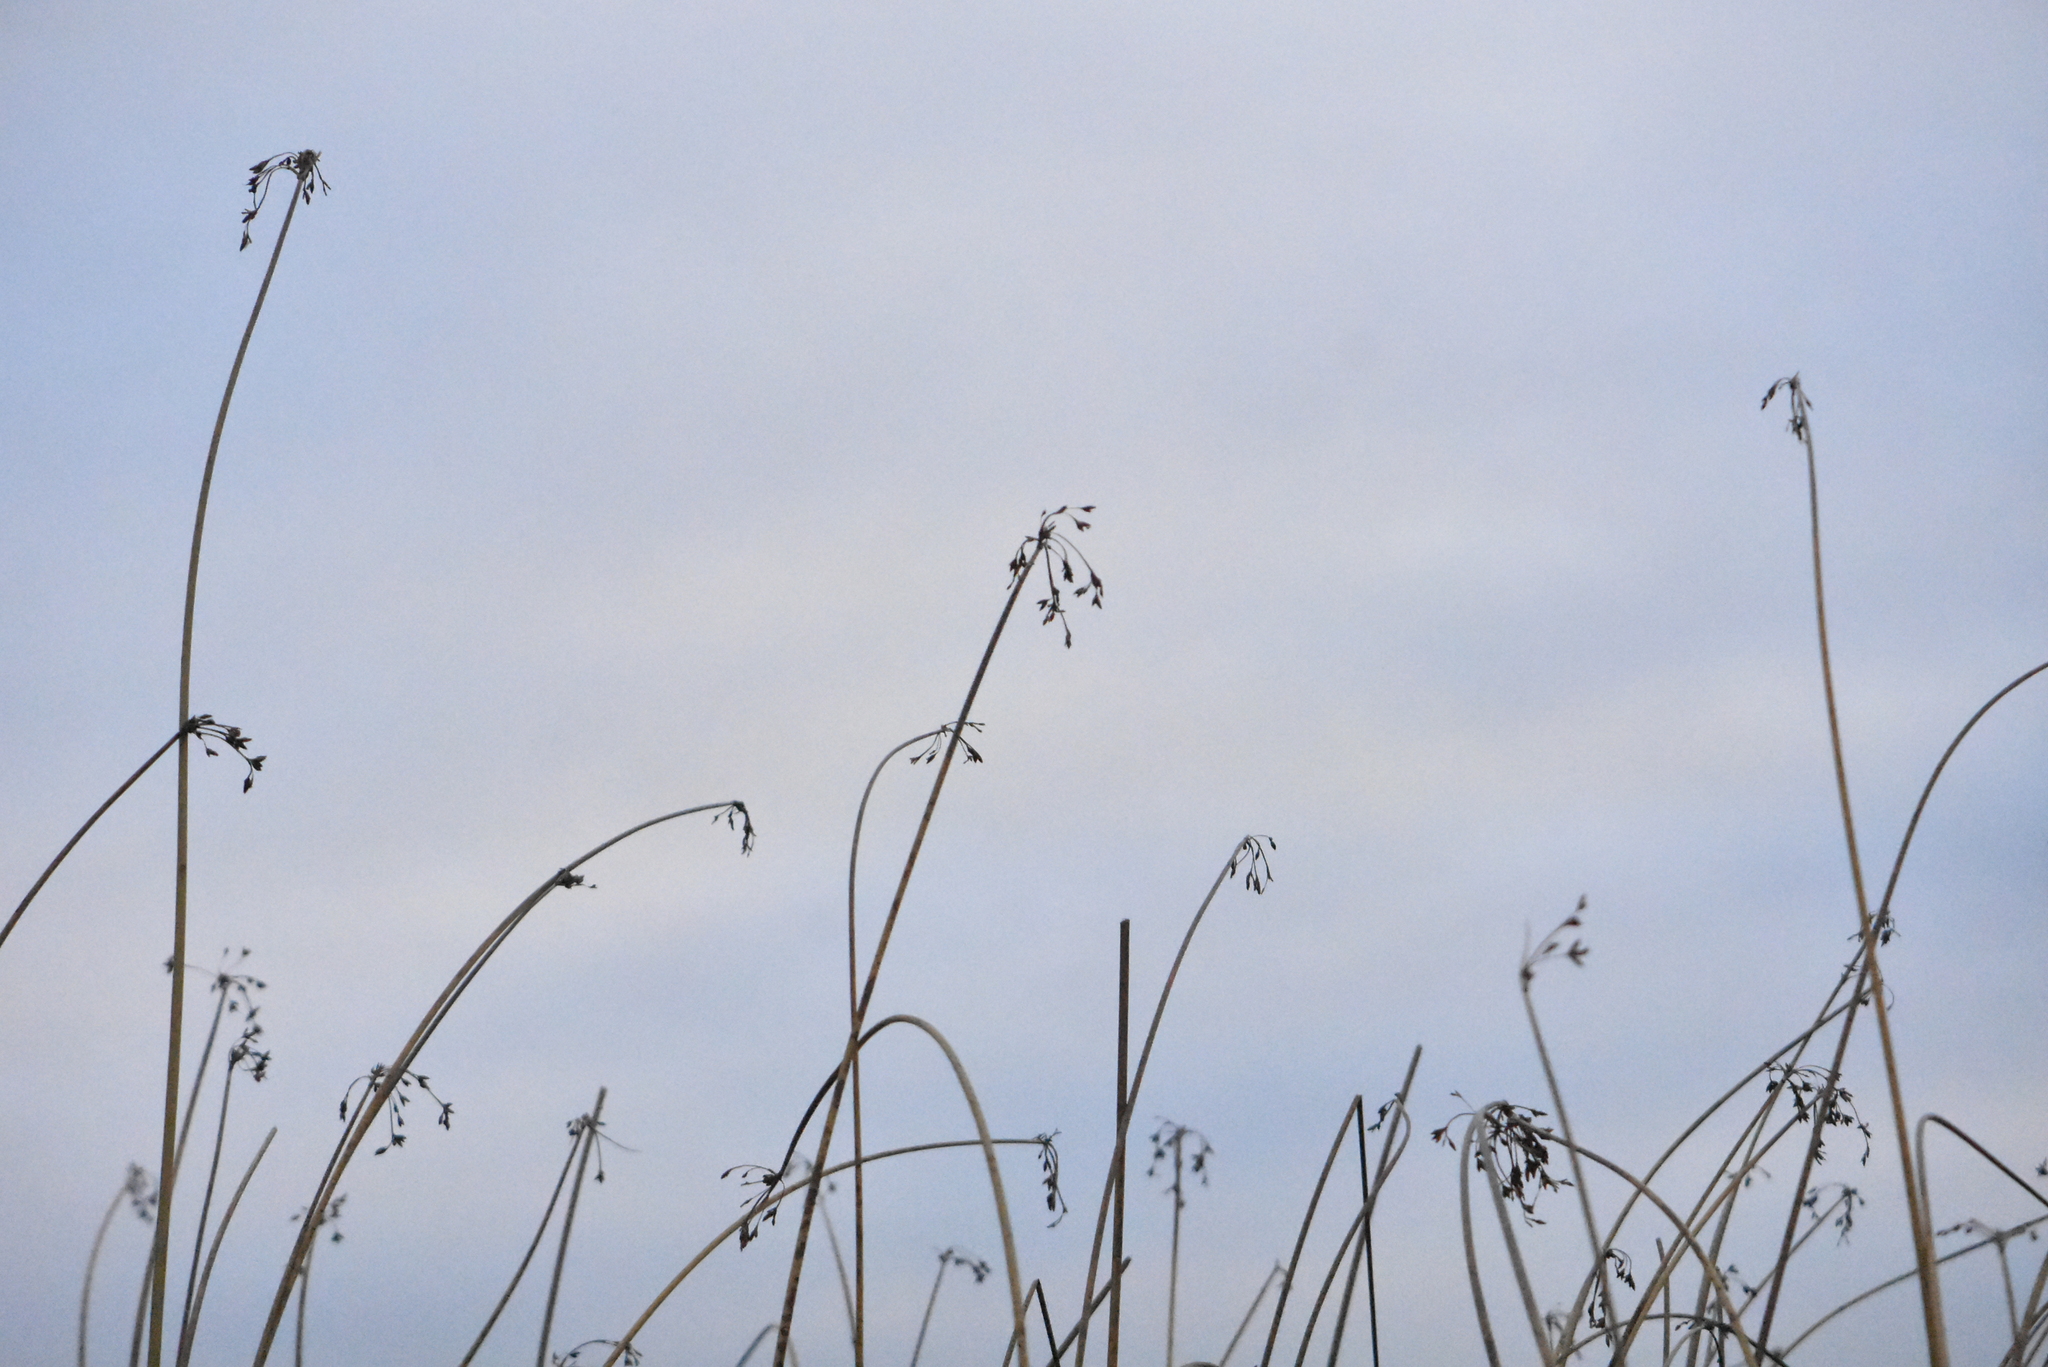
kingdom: Plantae
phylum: Tracheophyta
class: Liliopsida
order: Poales
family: Cyperaceae
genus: Schoenoplectus
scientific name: Schoenoplectus lacustris
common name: Common club-rush
